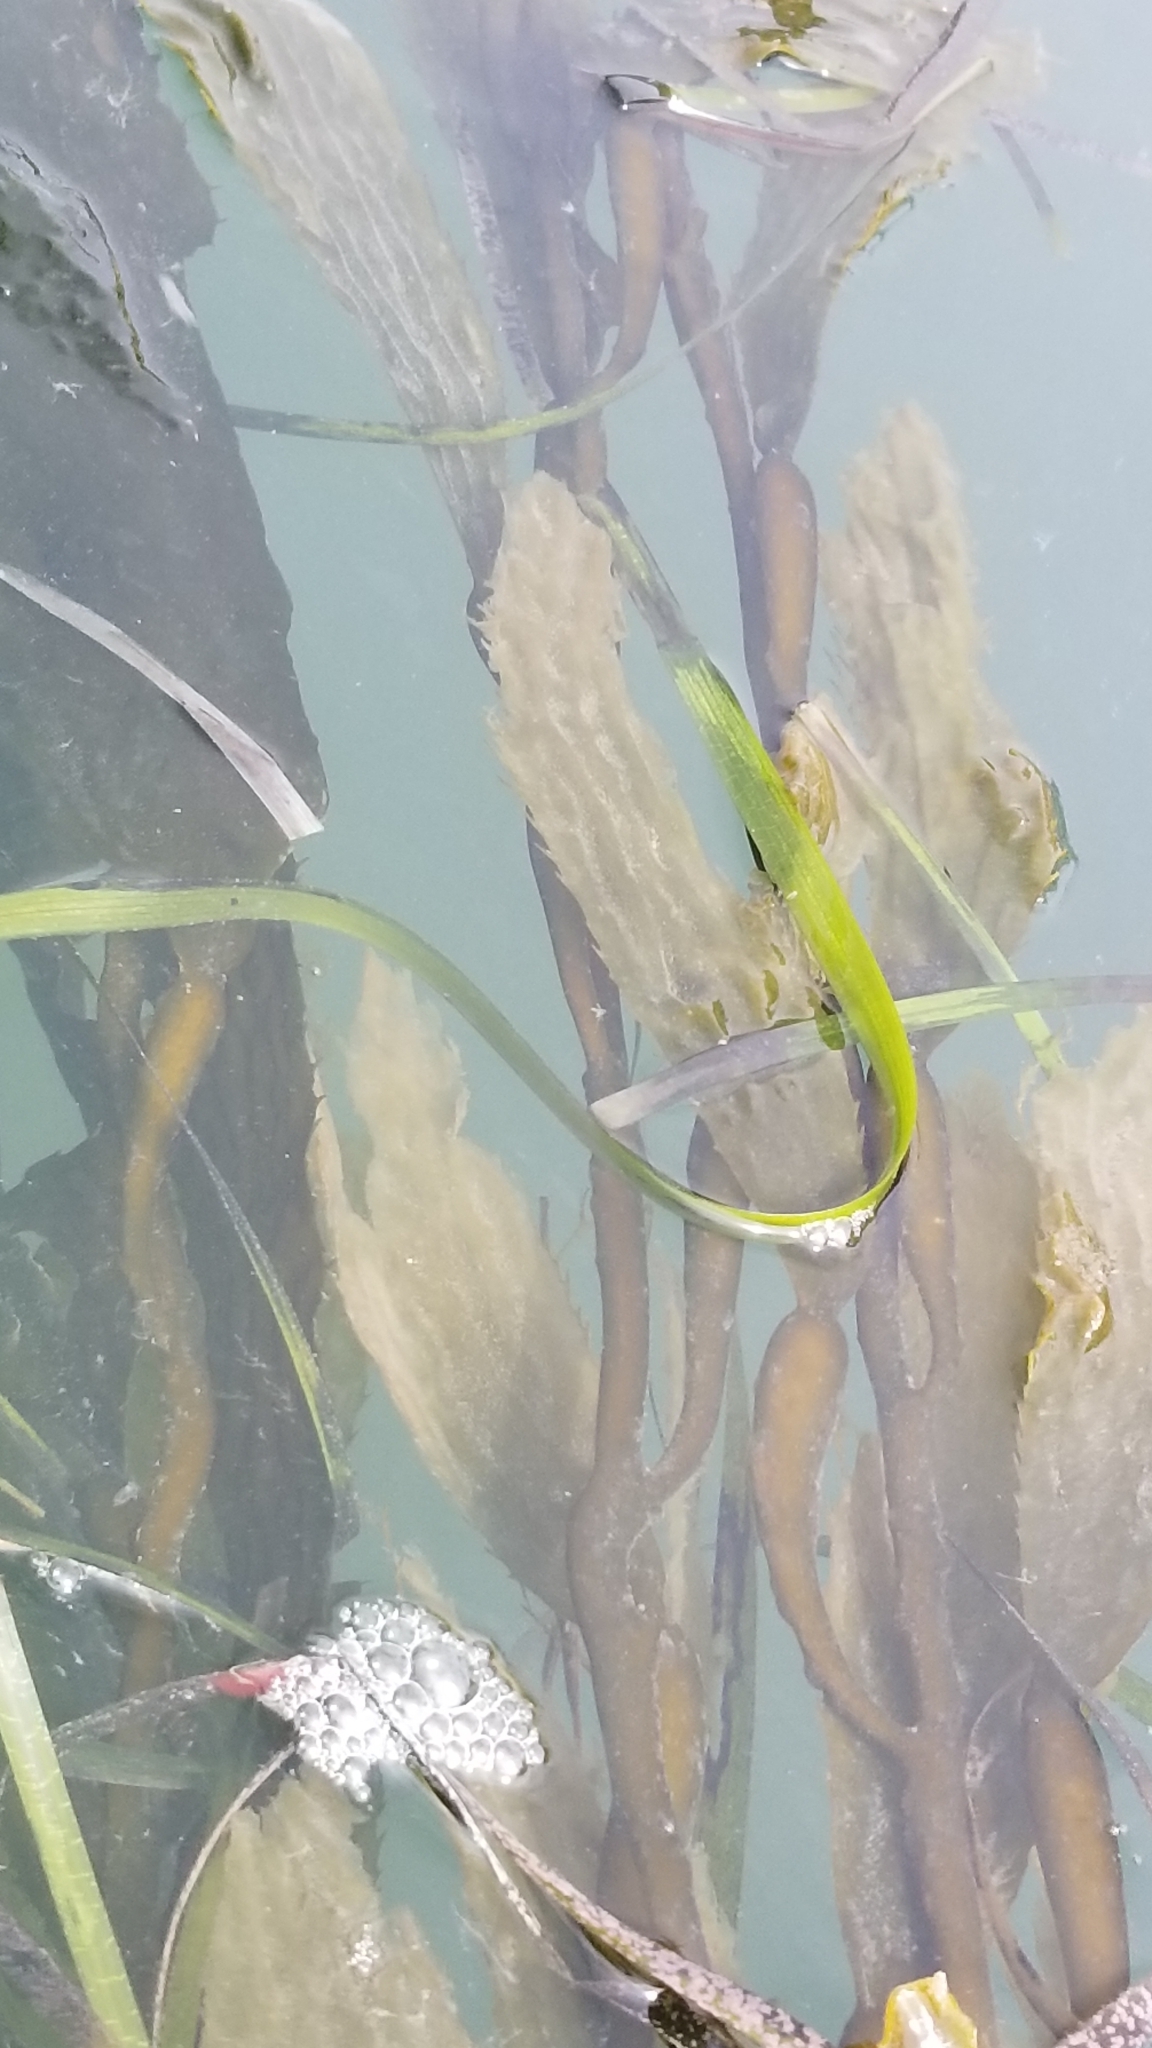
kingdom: Chromista
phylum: Ochrophyta
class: Phaeophyceae
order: Laminariales
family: Laminariaceae
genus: Macrocystis
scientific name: Macrocystis pyrifera
